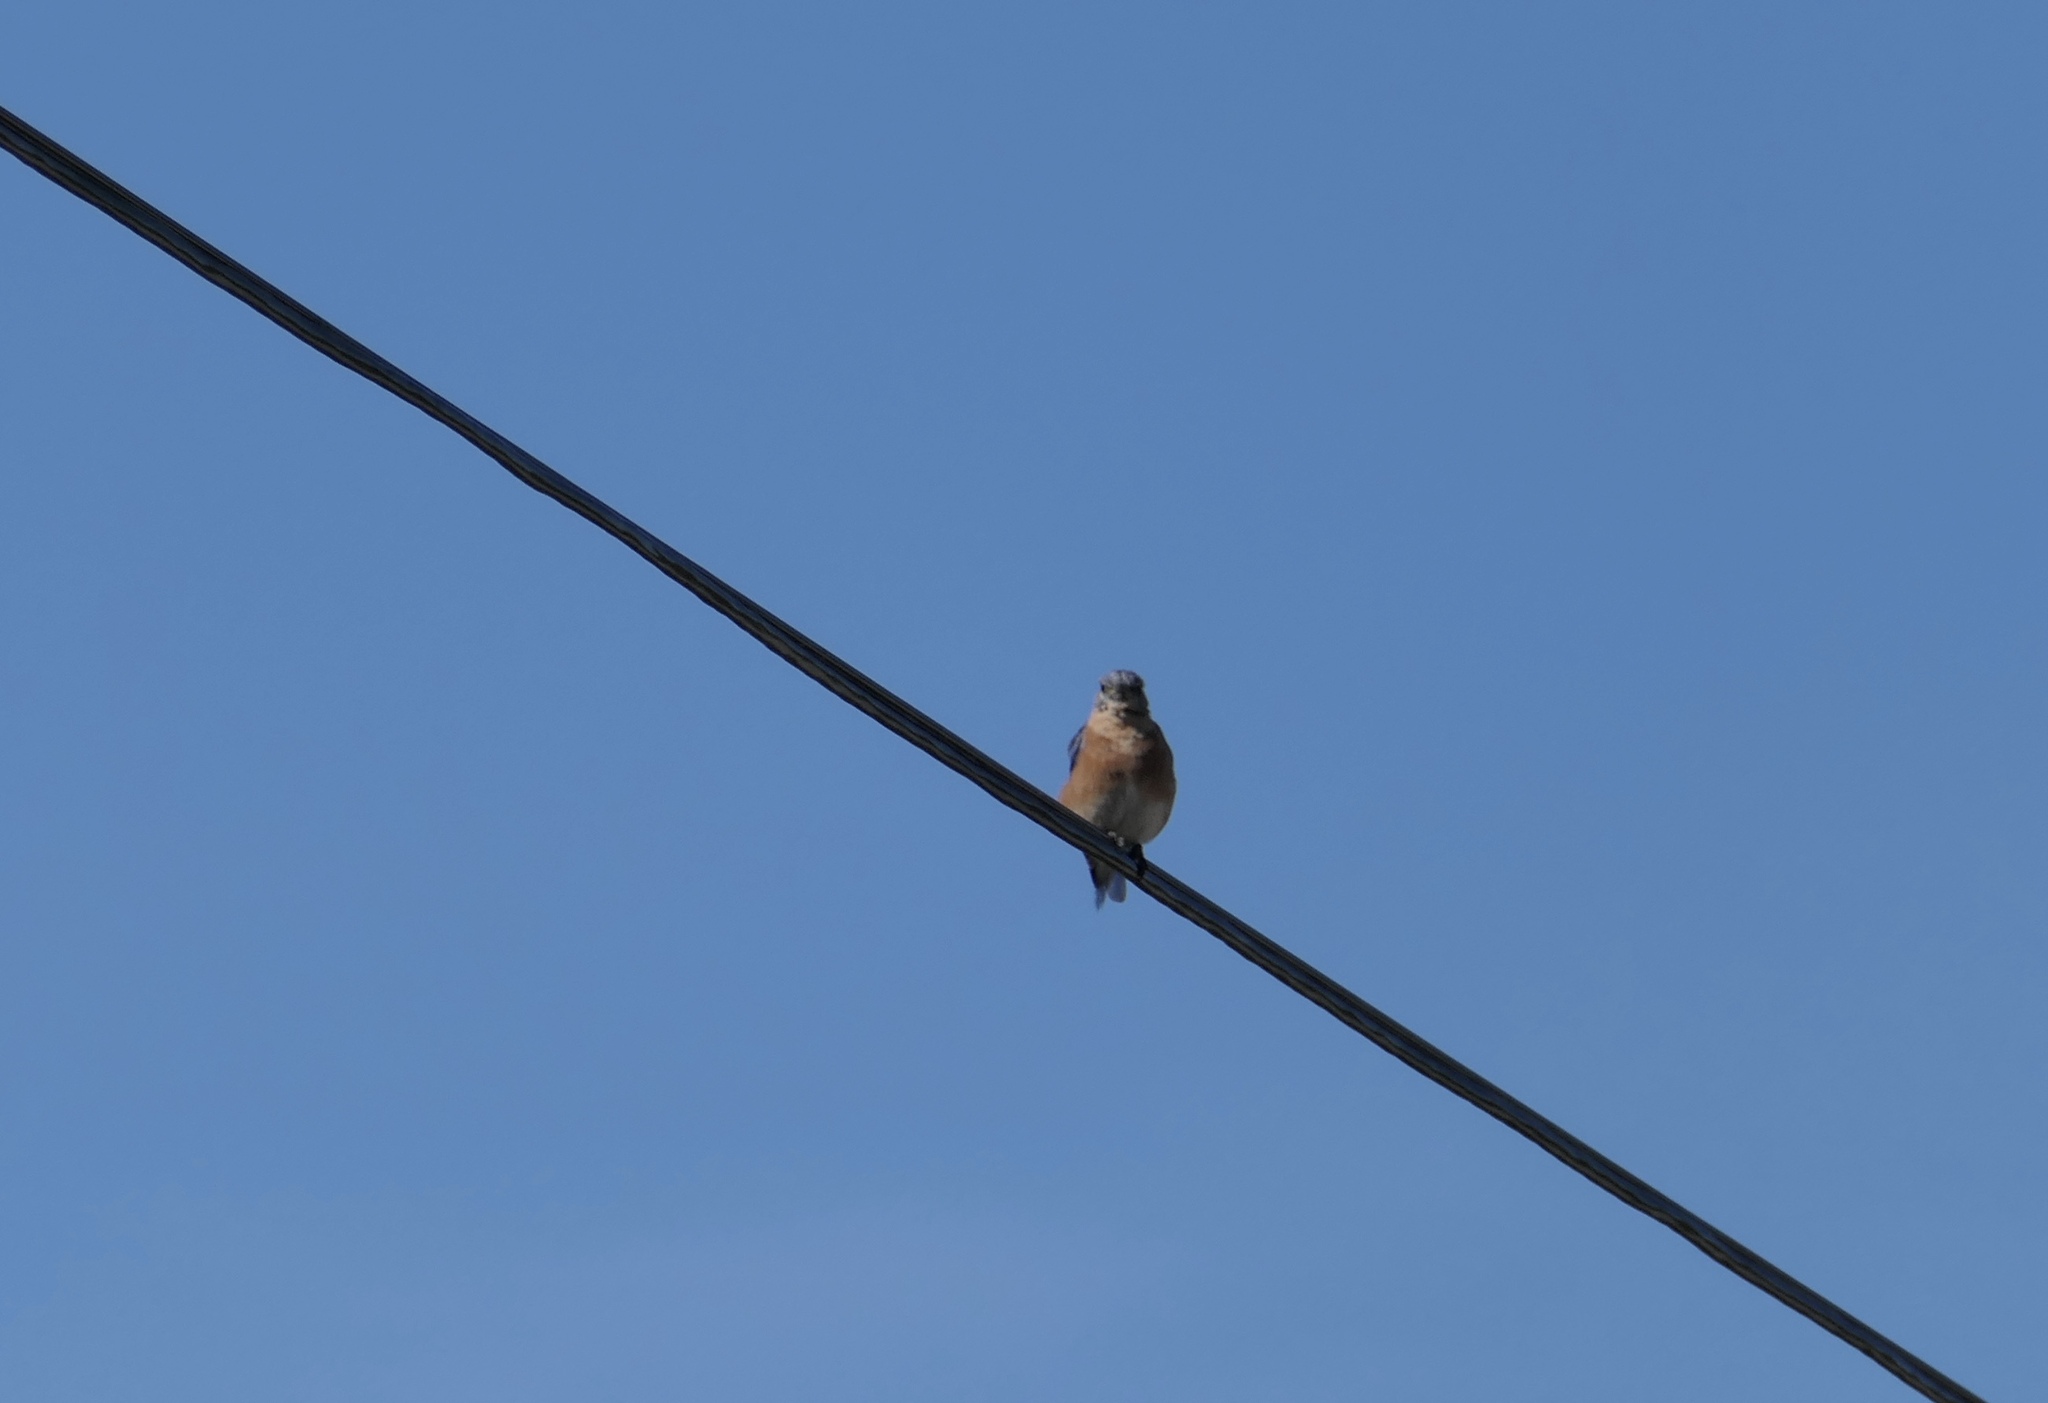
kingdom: Animalia
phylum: Chordata
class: Aves
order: Passeriformes
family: Turdidae
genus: Sialia
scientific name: Sialia sialis
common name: Eastern bluebird
